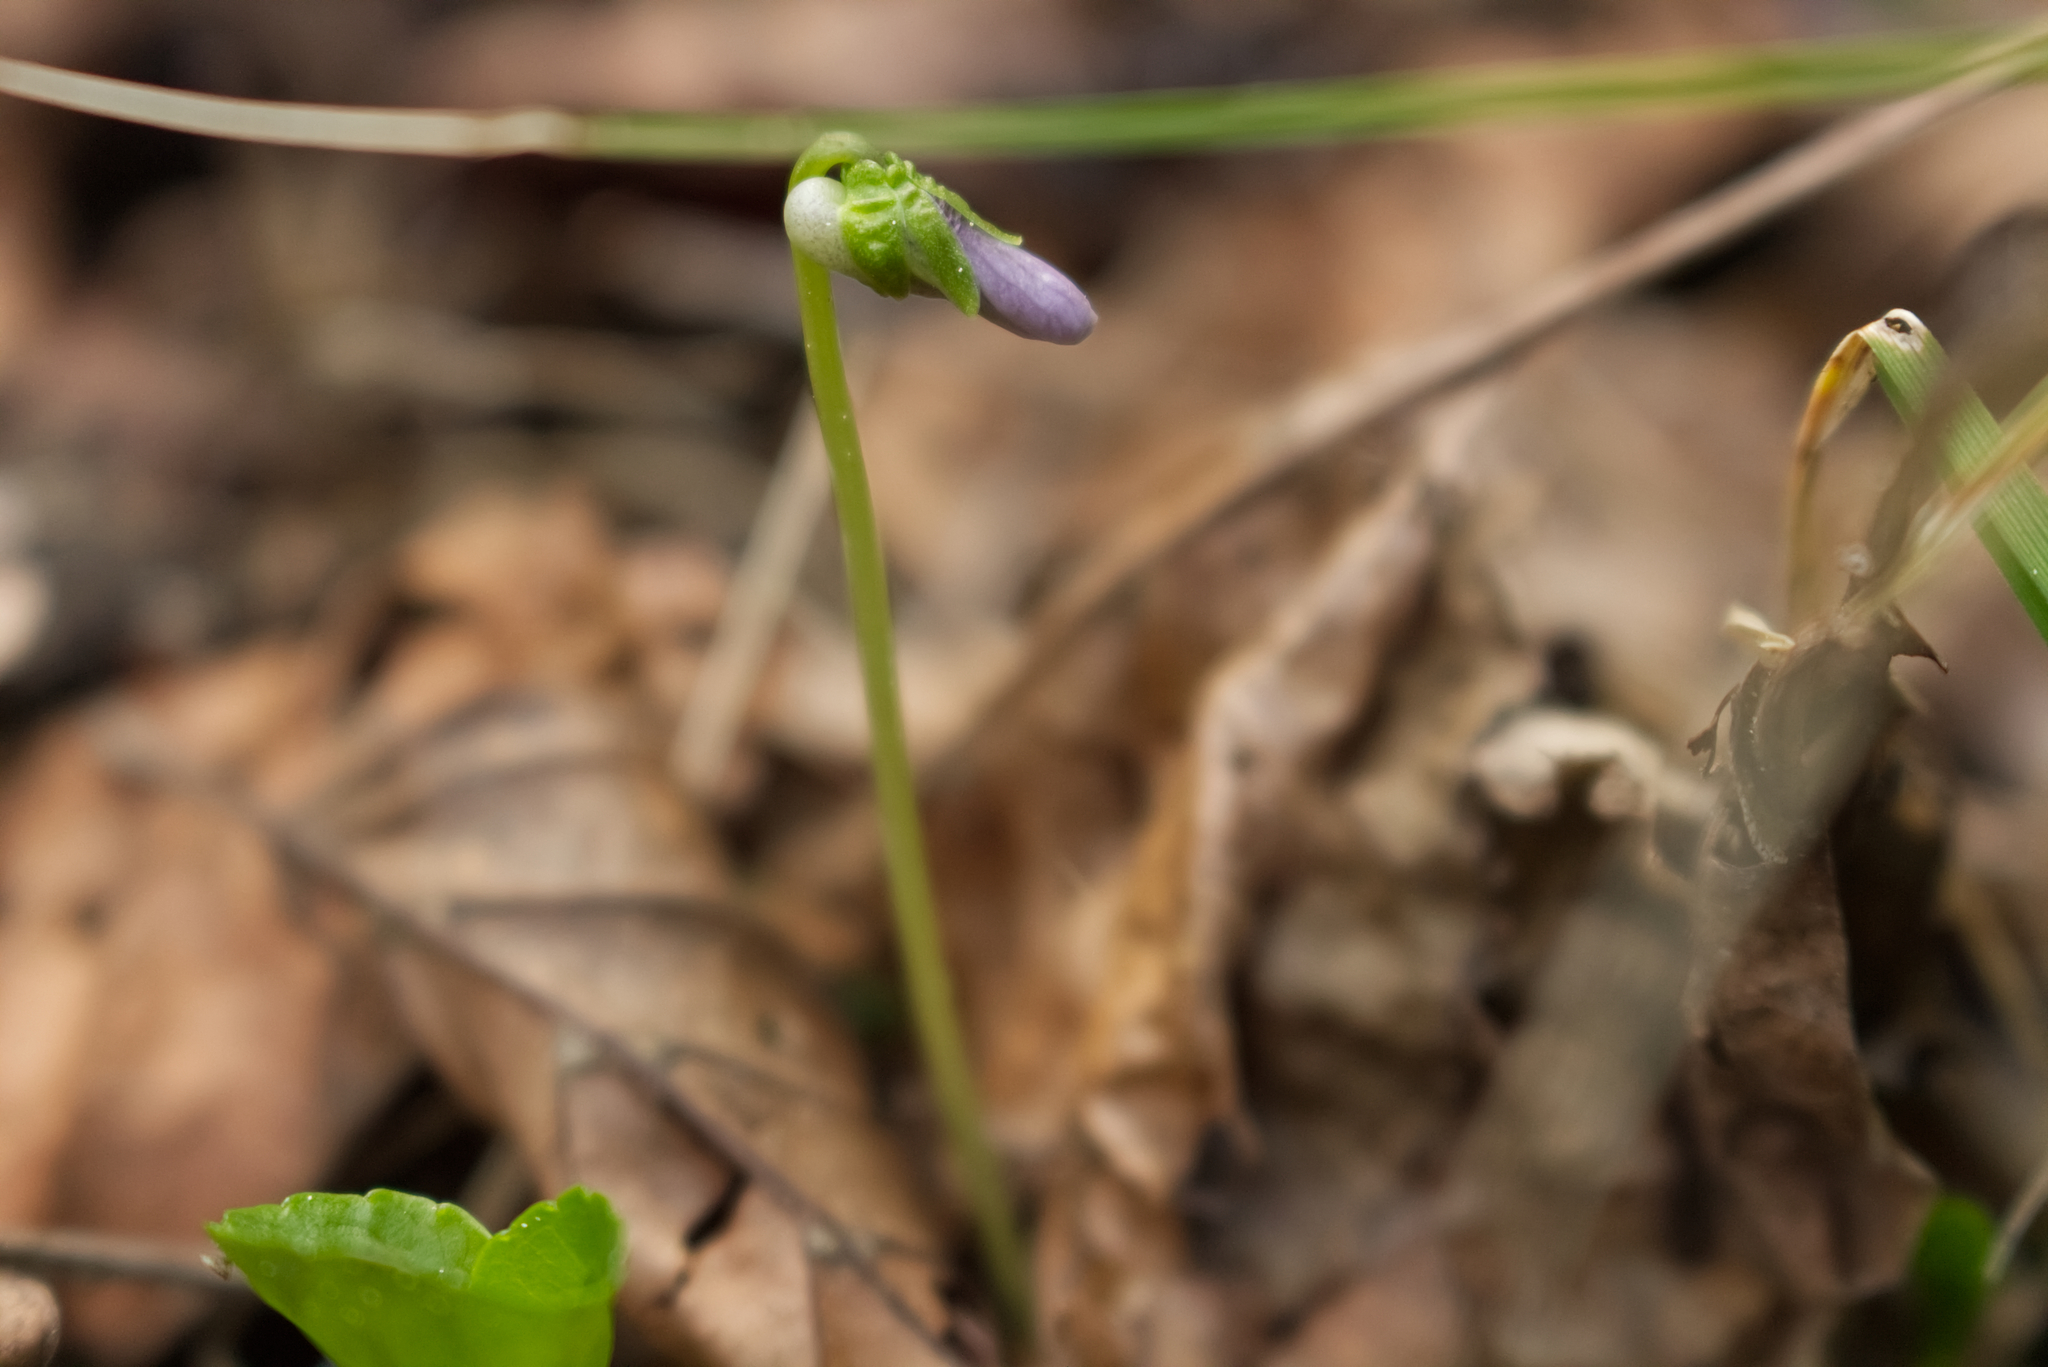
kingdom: Plantae
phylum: Tracheophyta
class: Magnoliopsida
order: Malpighiales
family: Violaceae
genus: Viola
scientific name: Viola palustris
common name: Marsh violet
